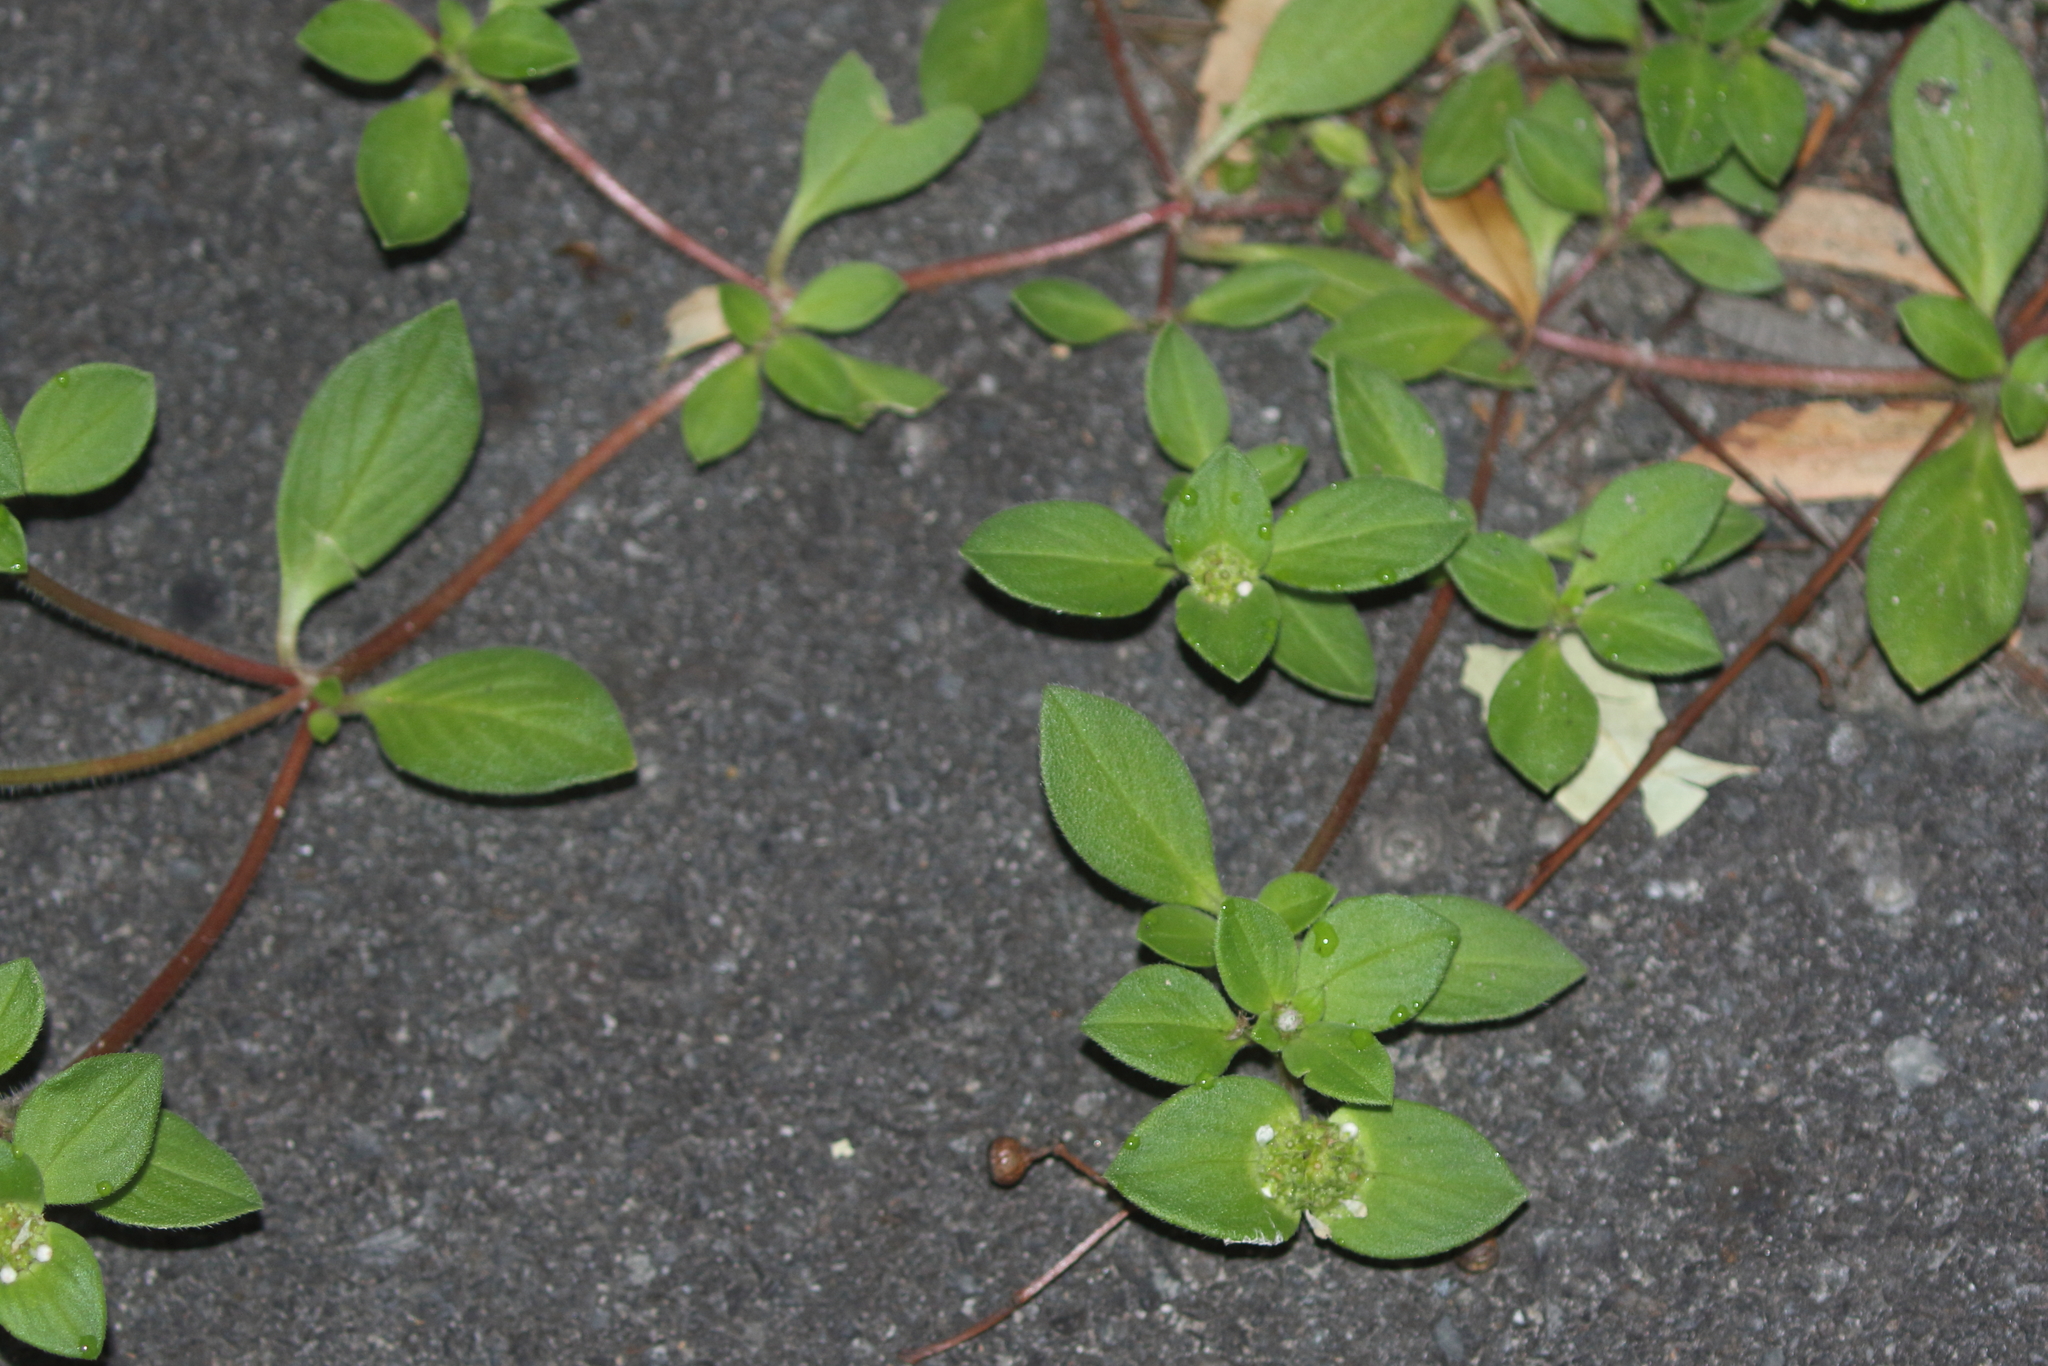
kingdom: Plantae
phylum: Tracheophyta
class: Magnoliopsida
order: Gentianales
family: Rubiaceae
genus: Richardia
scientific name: Richardia brasiliensis
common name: Tropical mexican clover
